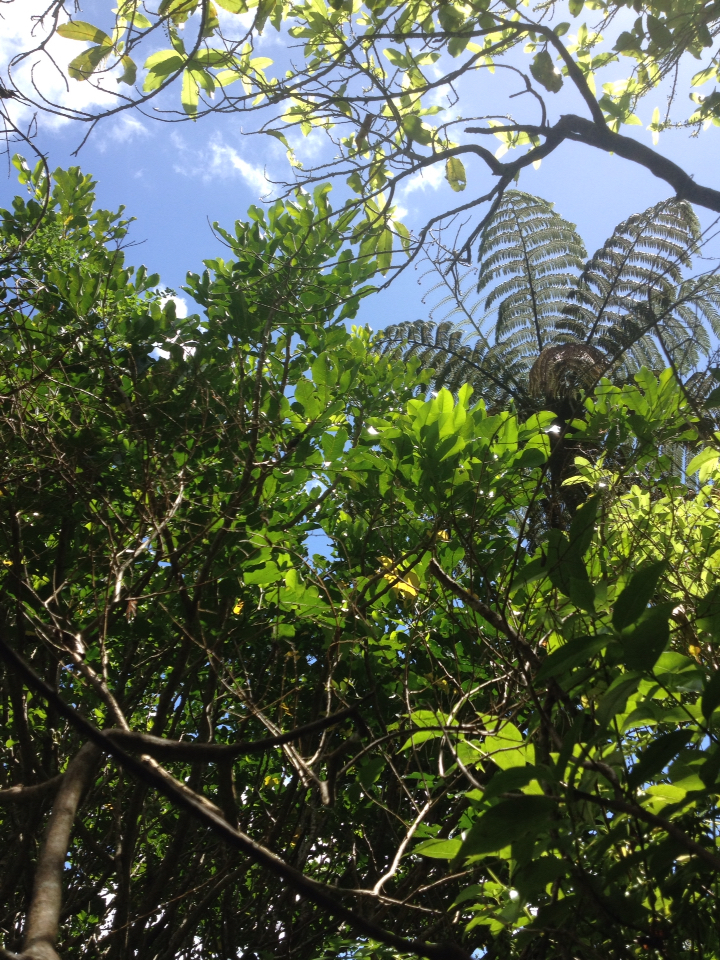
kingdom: Plantae
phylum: Tracheophyta
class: Magnoliopsida
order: Sapindales
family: Meliaceae
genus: Didymocheton
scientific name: Didymocheton spectabilis
